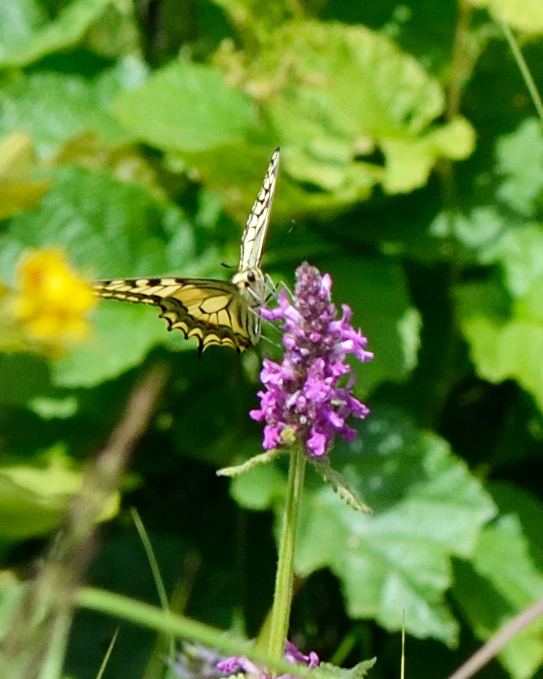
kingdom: Animalia
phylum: Arthropoda
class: Insecta
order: Lepidoptera
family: Papilionidae
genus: Papilio
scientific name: Papilio machaon
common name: Swallowtail
